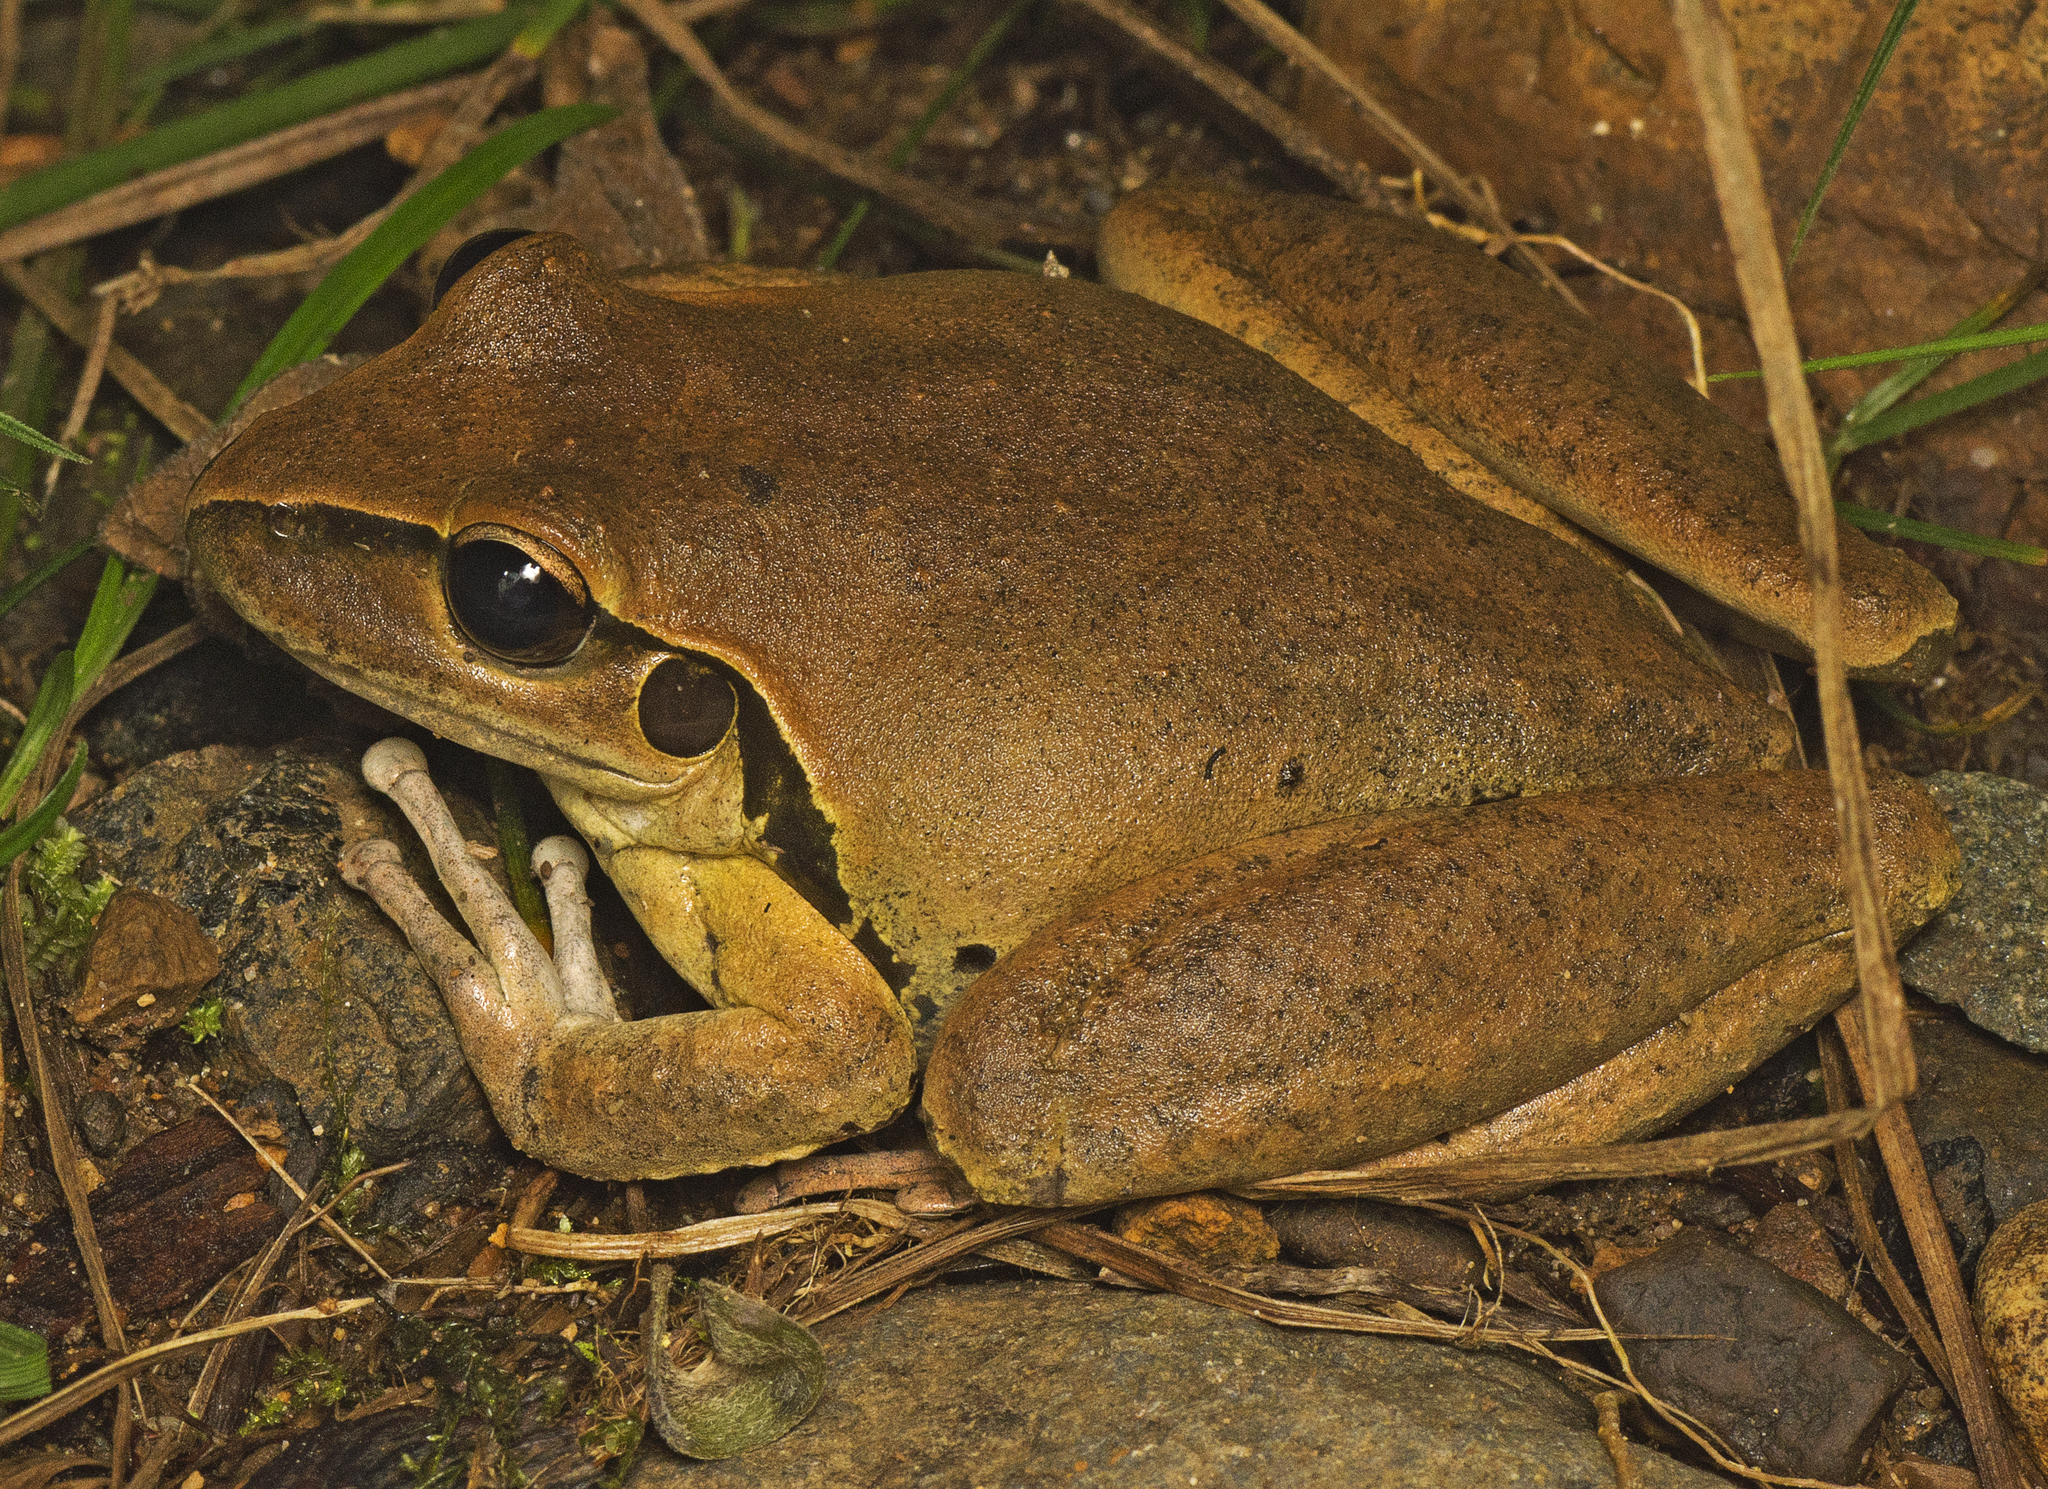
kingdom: Animalia
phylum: Chordata
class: Amphibia
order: Anura
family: Pelodryadidae
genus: Ranoidea
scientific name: Ranoidea wilcoxii
